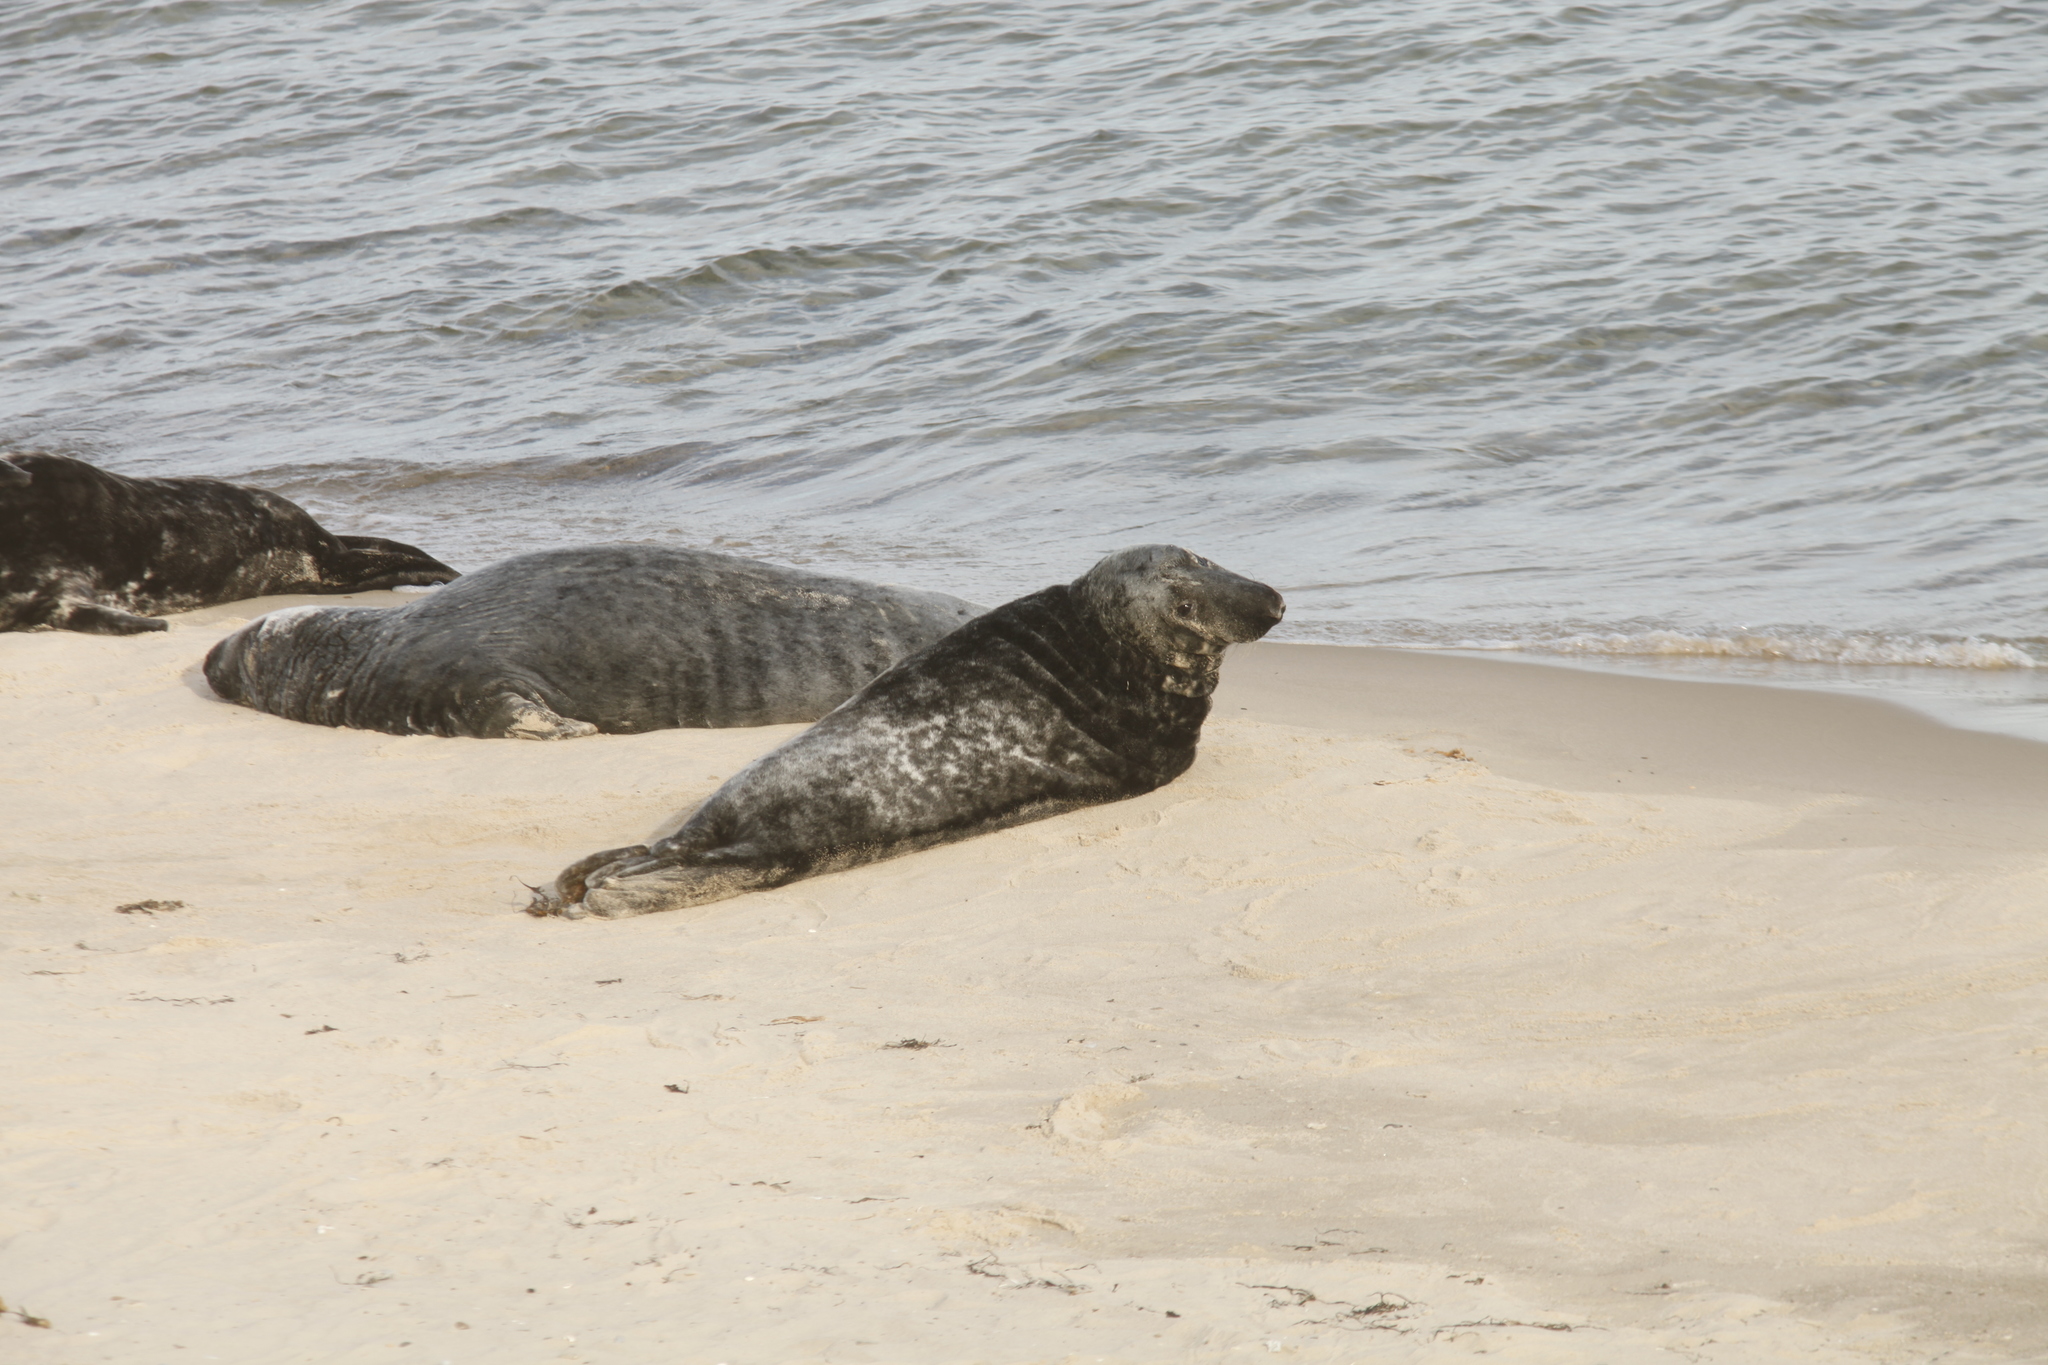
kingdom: Animalia
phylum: Chordata
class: Mammalia
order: Carnivora
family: Phocidae
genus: Halichoerus
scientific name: Halichoerus grypus
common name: Grey seal
